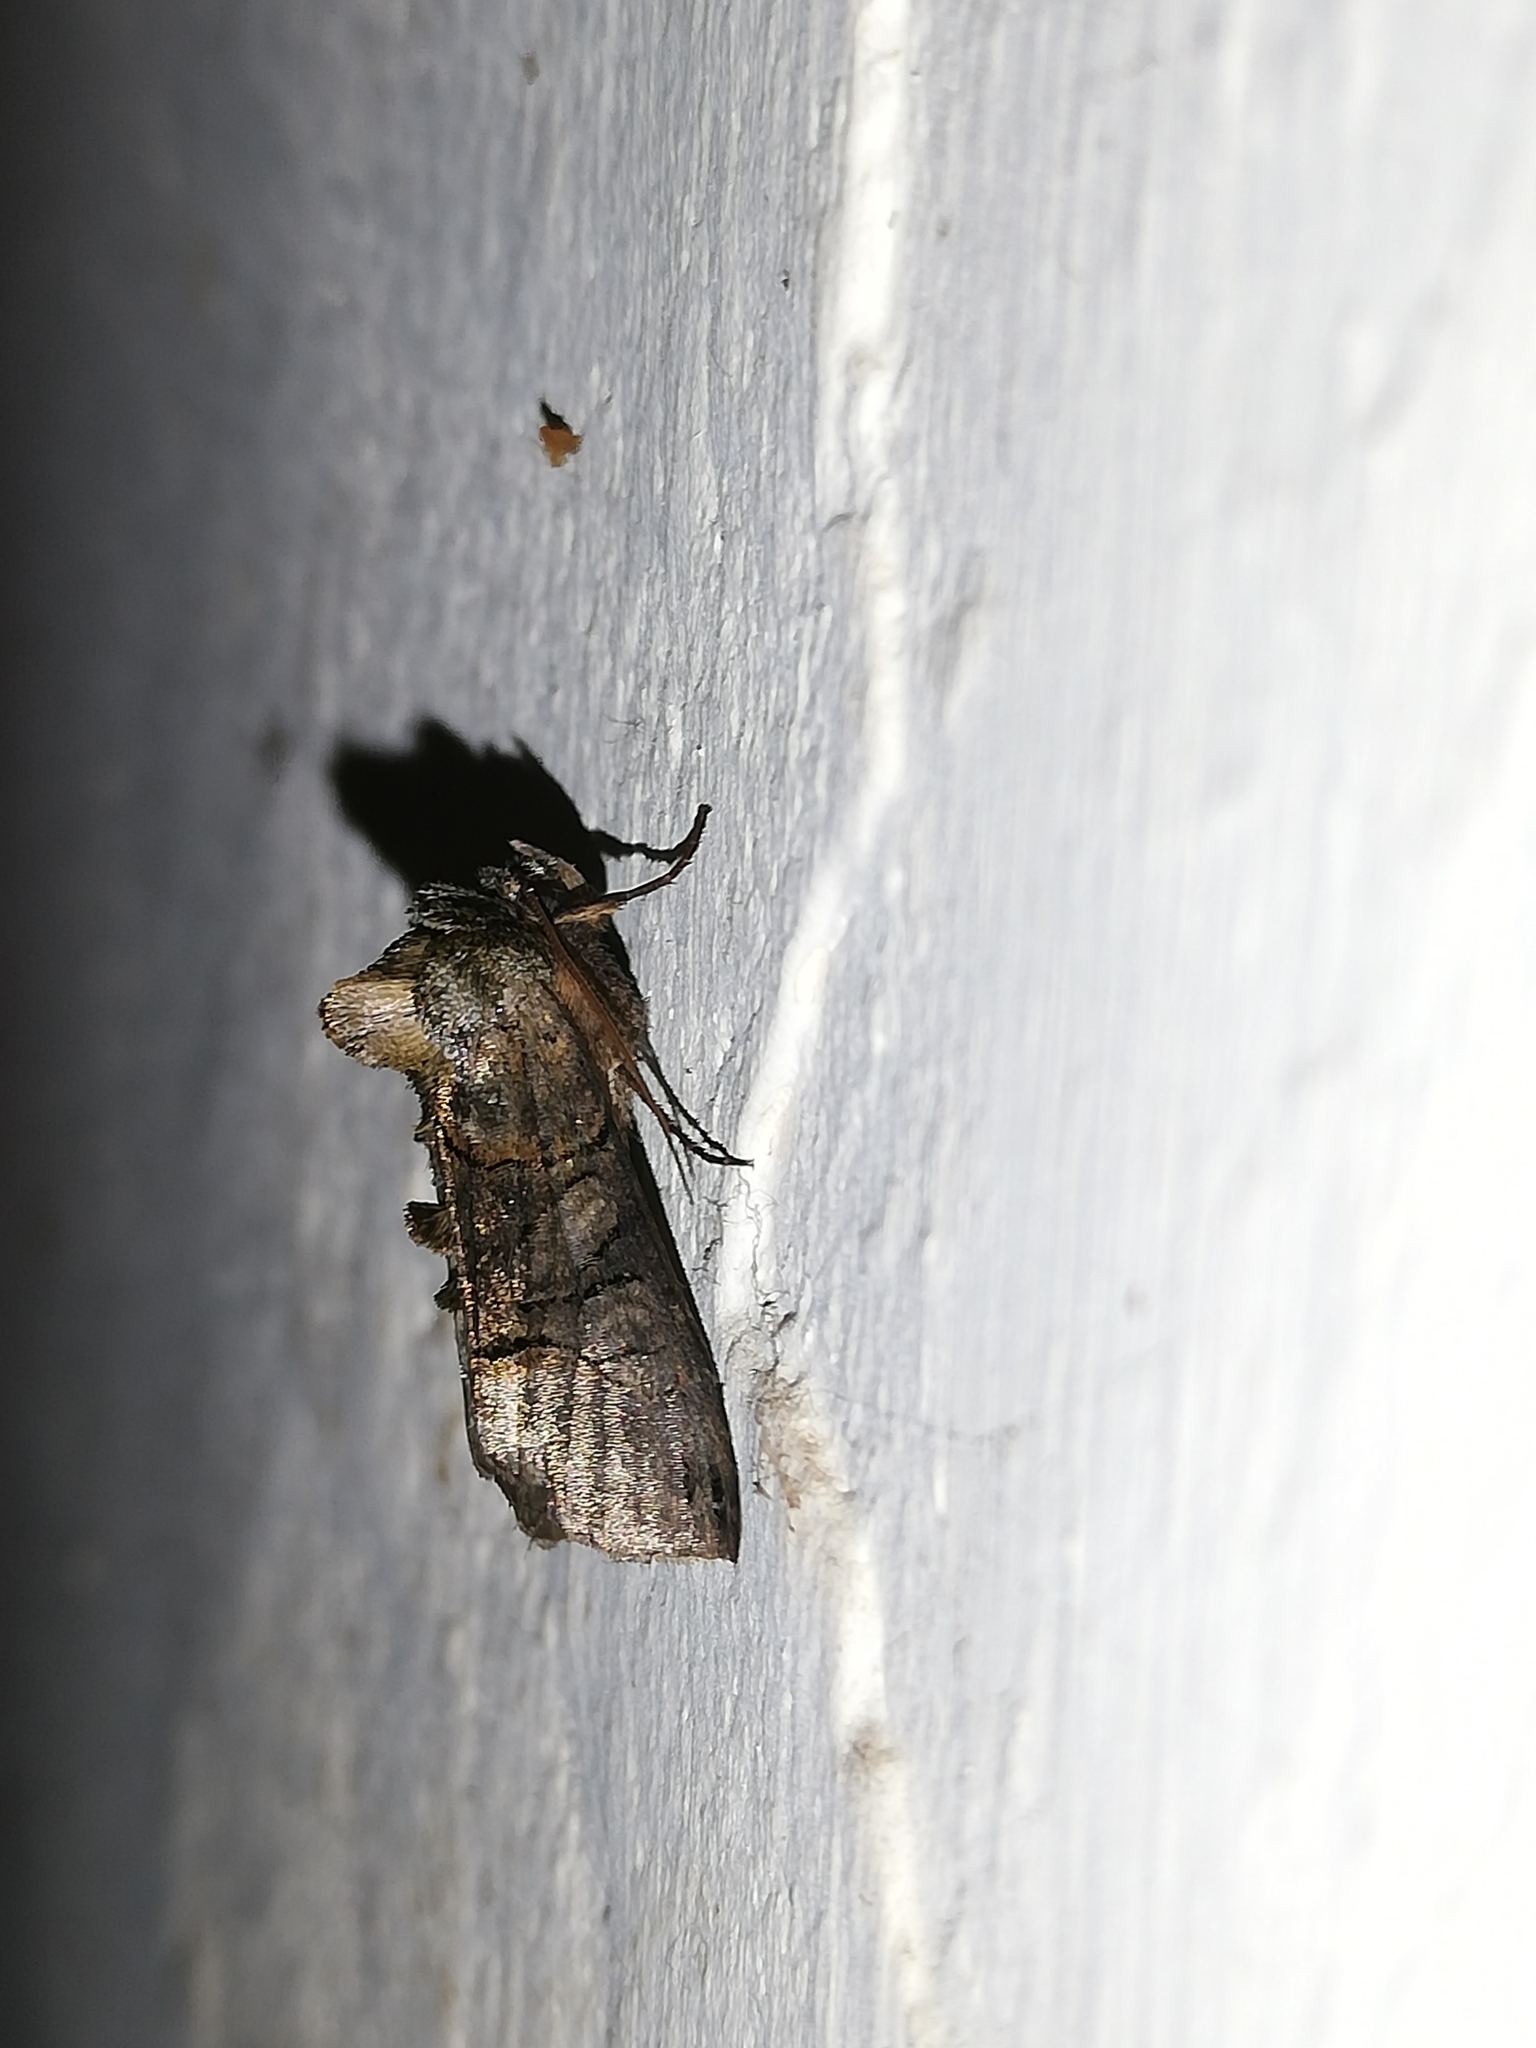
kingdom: Animalia
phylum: Arthropoda
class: Insecta
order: Lepidoptera
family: Noctuidae
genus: Abrostola
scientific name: Abrostola tripartita
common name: Spectacle
